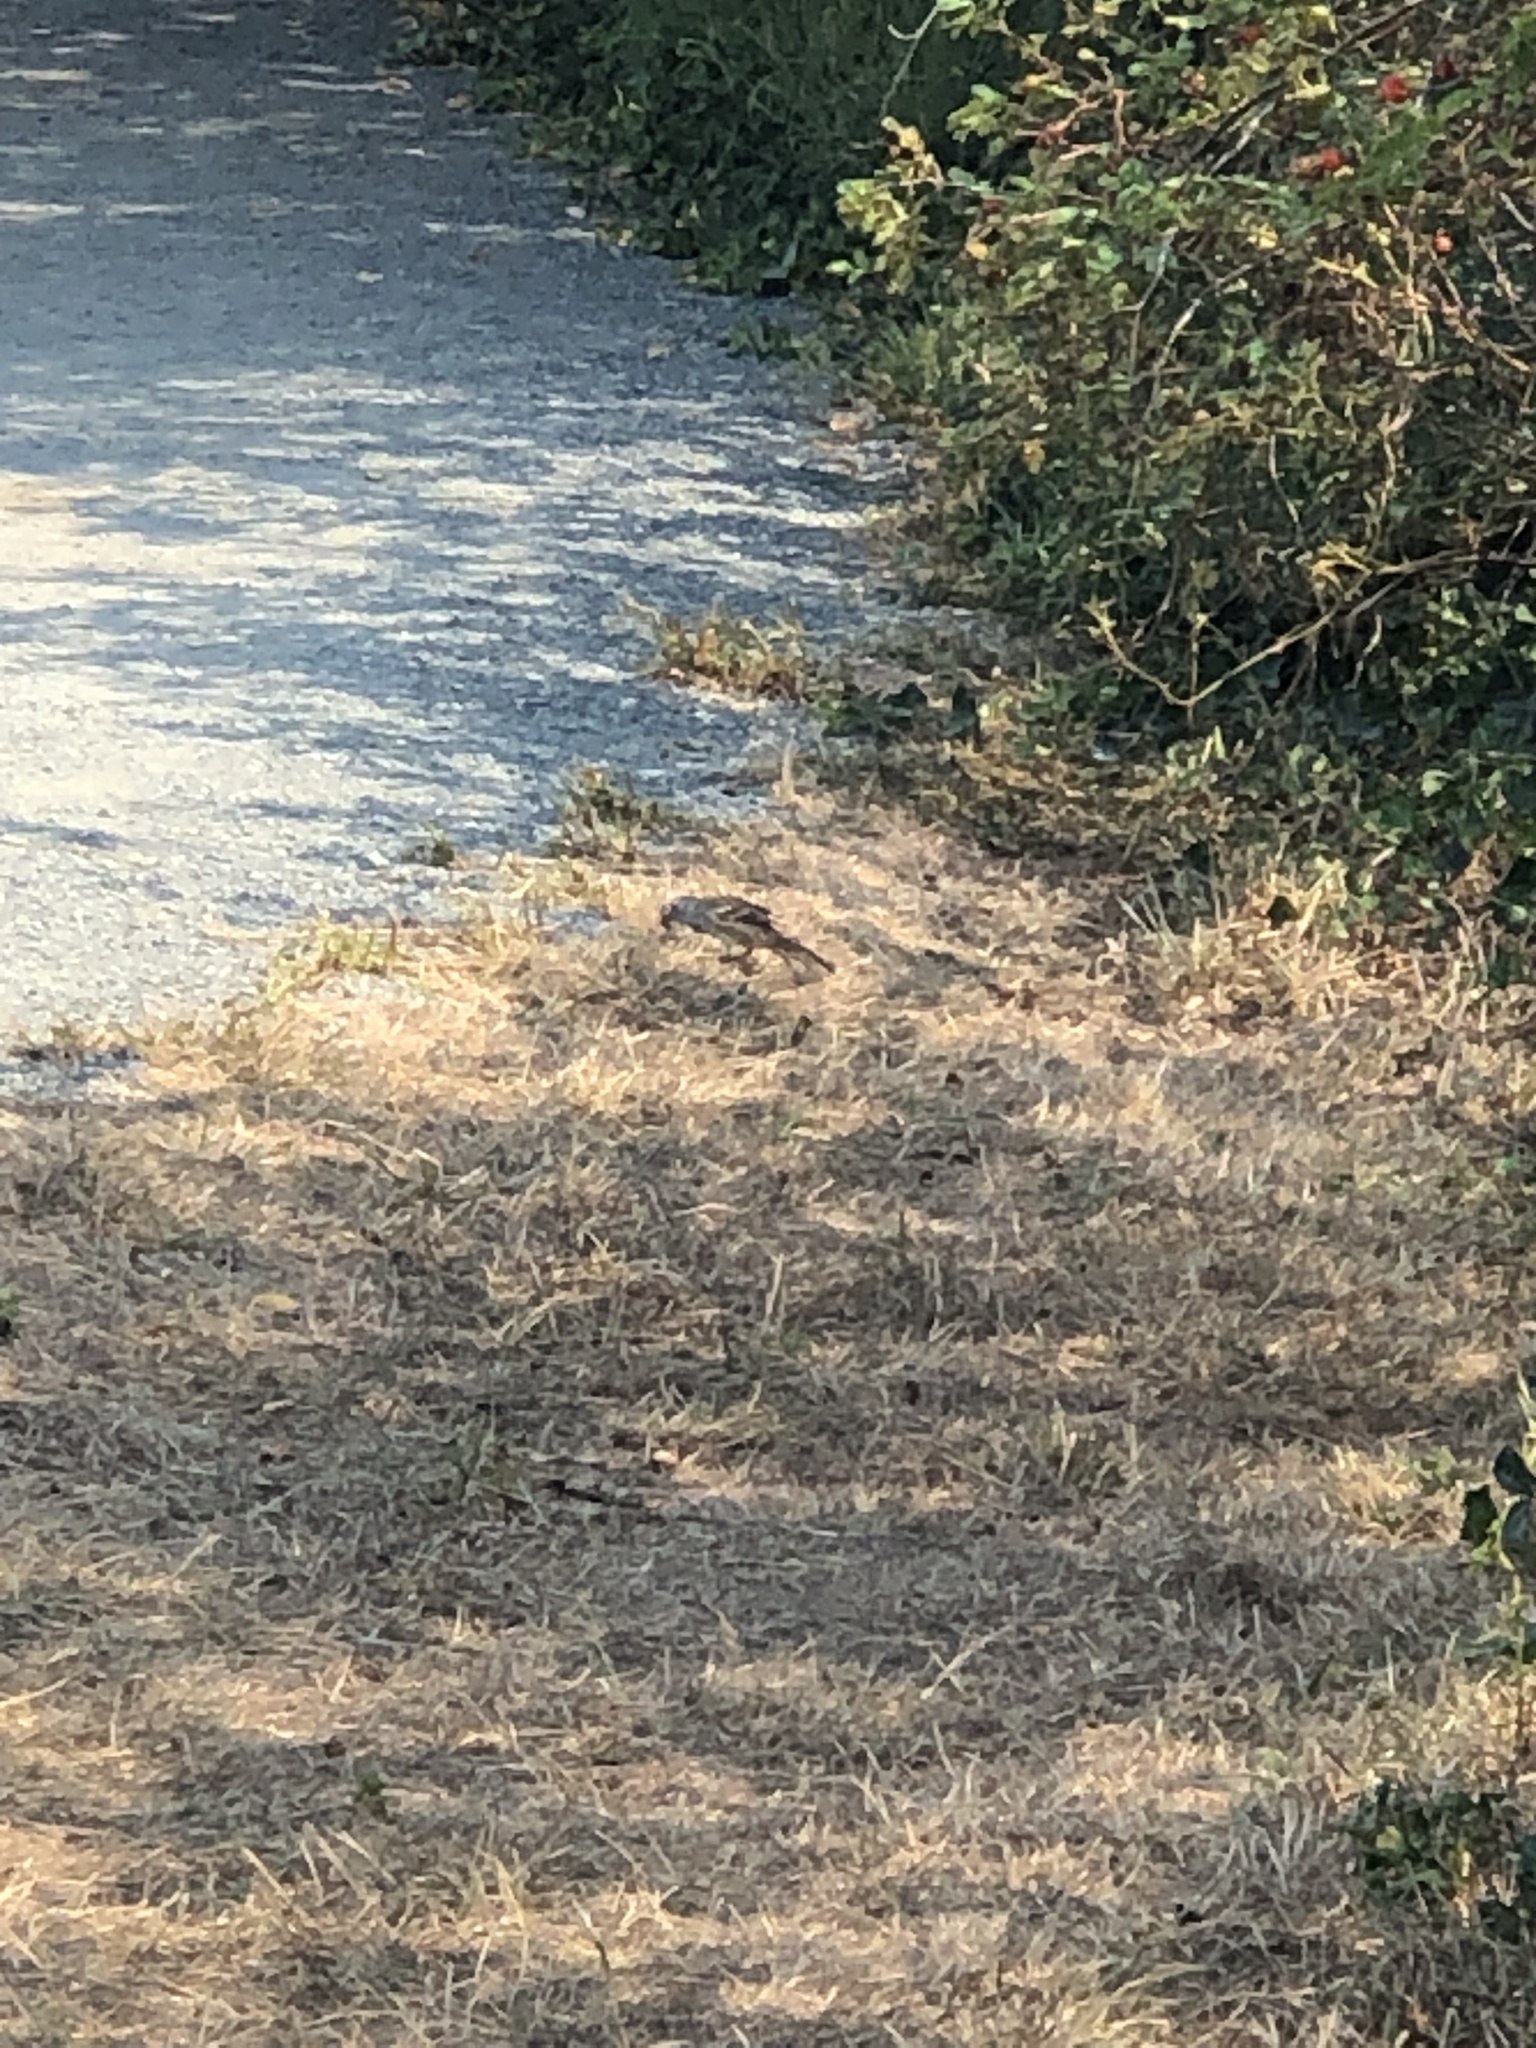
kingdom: Animalia
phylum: Chordata
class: Aves
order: Passeriformes
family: Passerellidae
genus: Zonotrichia
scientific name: Zonotrichia leucophrys
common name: White-crowned sparrow
